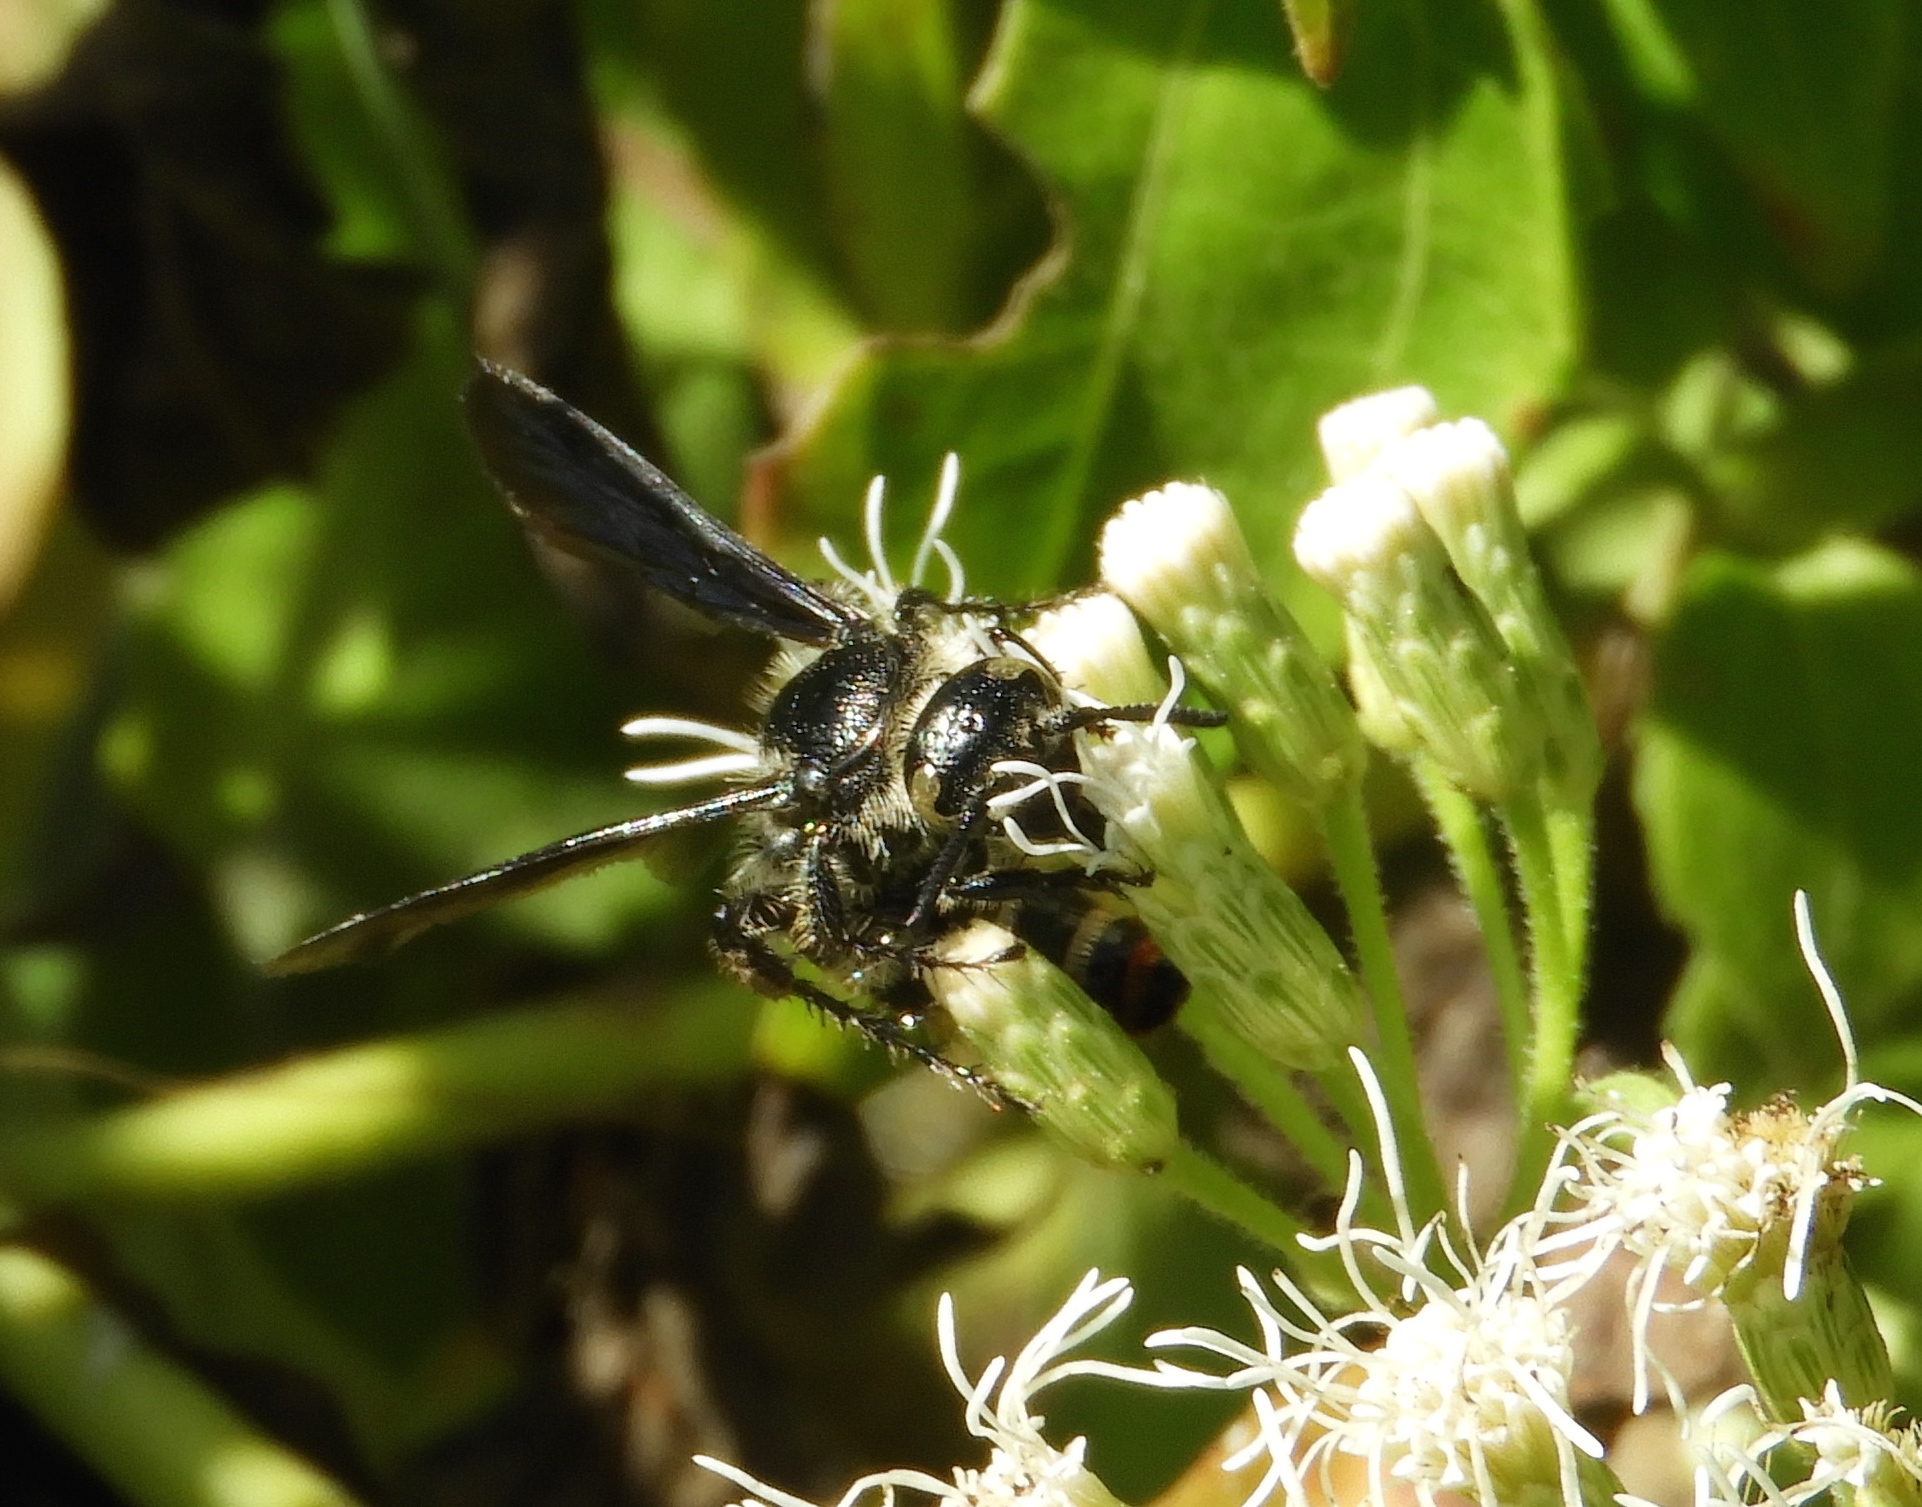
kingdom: Animalia
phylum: Arthropoda
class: Insecta
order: Hymenoptera
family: Scoliidae
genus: Dielis
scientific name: Dielis tolteca
